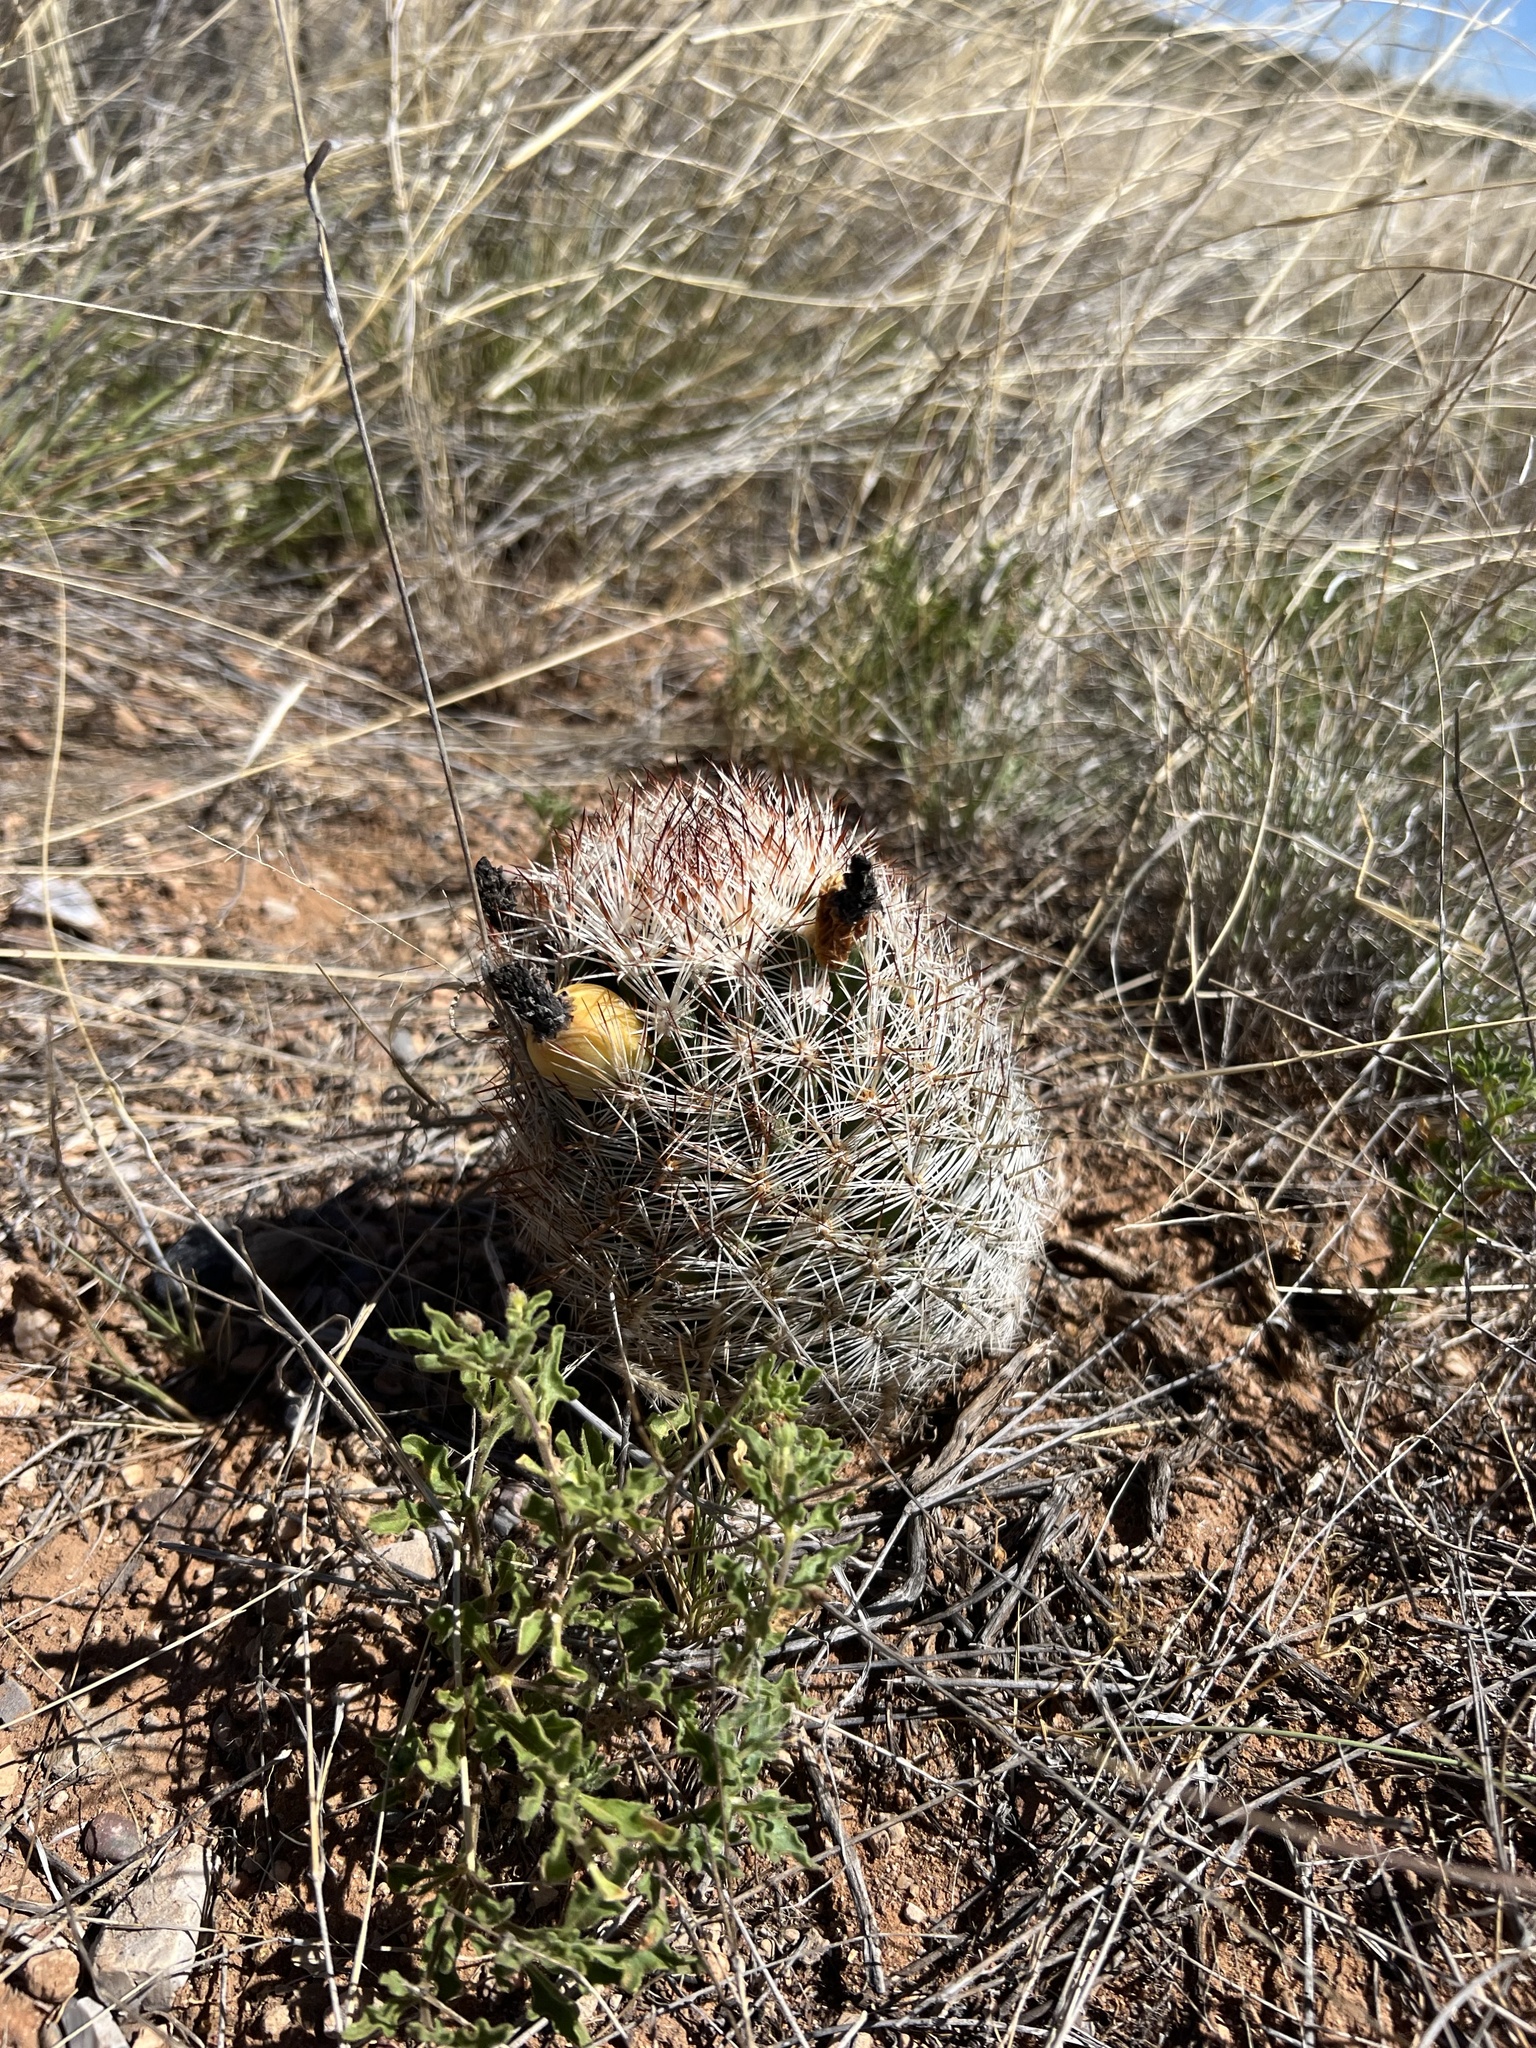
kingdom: Plantae
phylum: Tracheophyta
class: Magnoliopsida
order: Caryophyllales
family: Cactaceae
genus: Pelecyphora
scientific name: Pelecyphora vivipara
